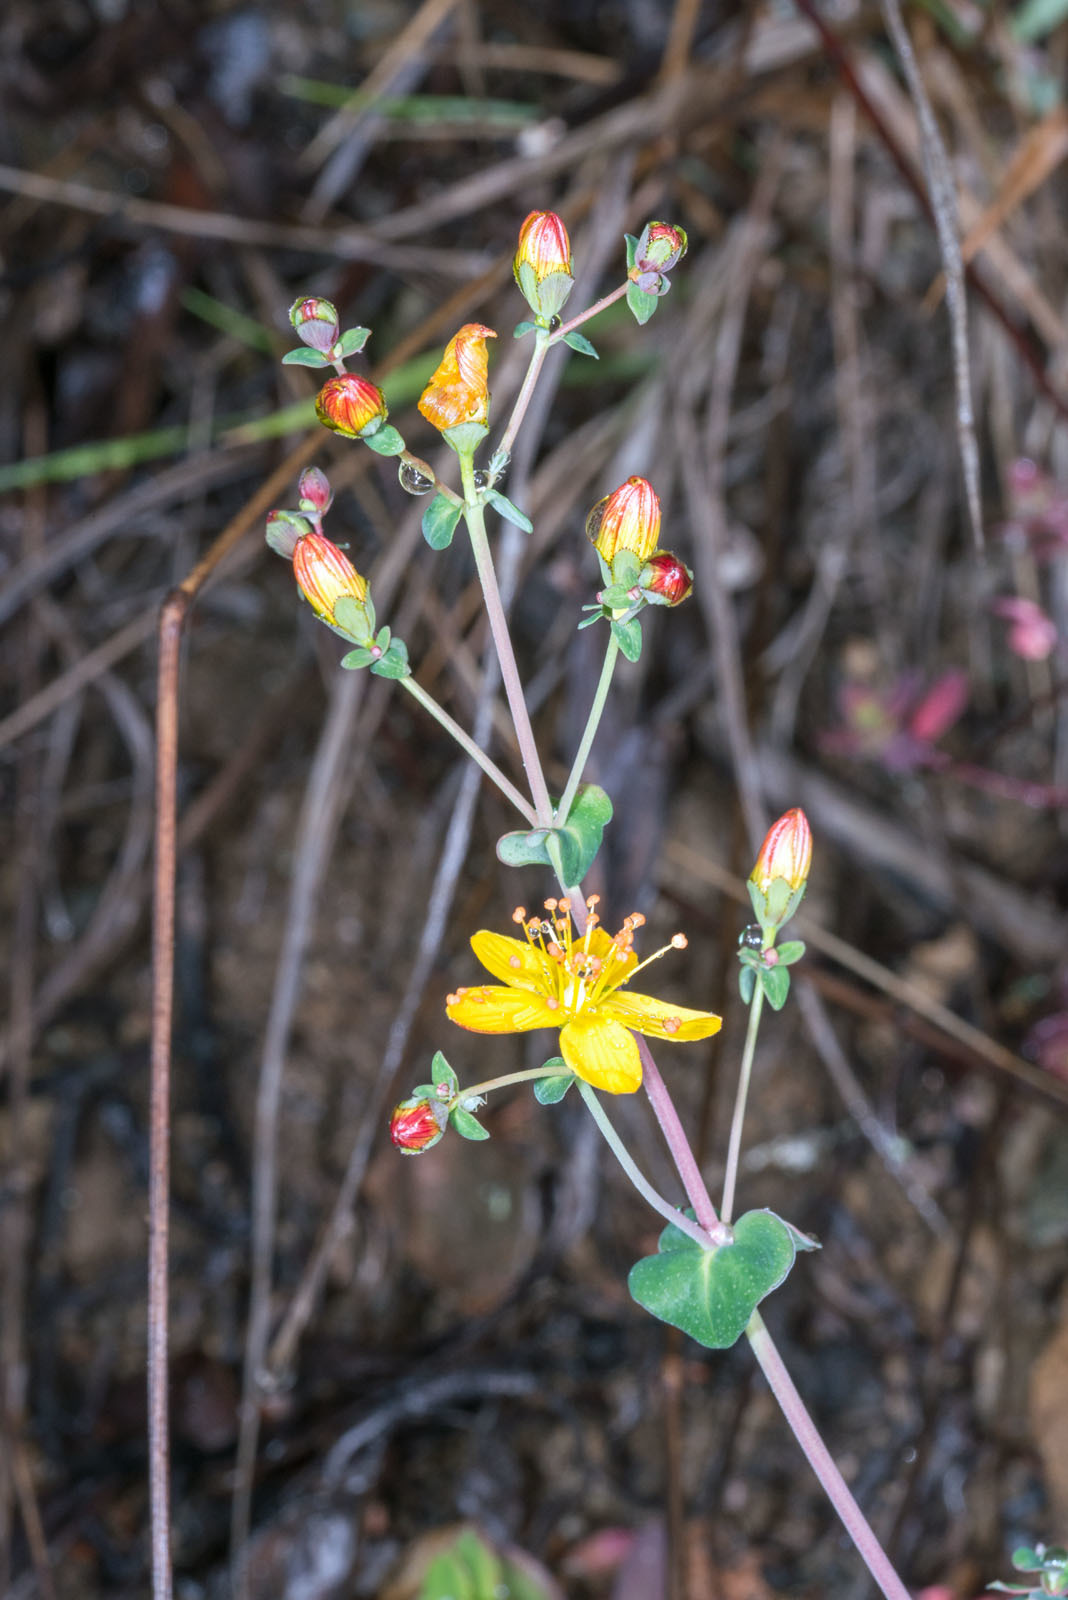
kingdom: Plantae
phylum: Tracheophyta
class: Magnoliopsida
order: Malpighiales
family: Hypericaceae
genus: Hypericum
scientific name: Hypericum pulchrum
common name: Slender st. john's-wort
